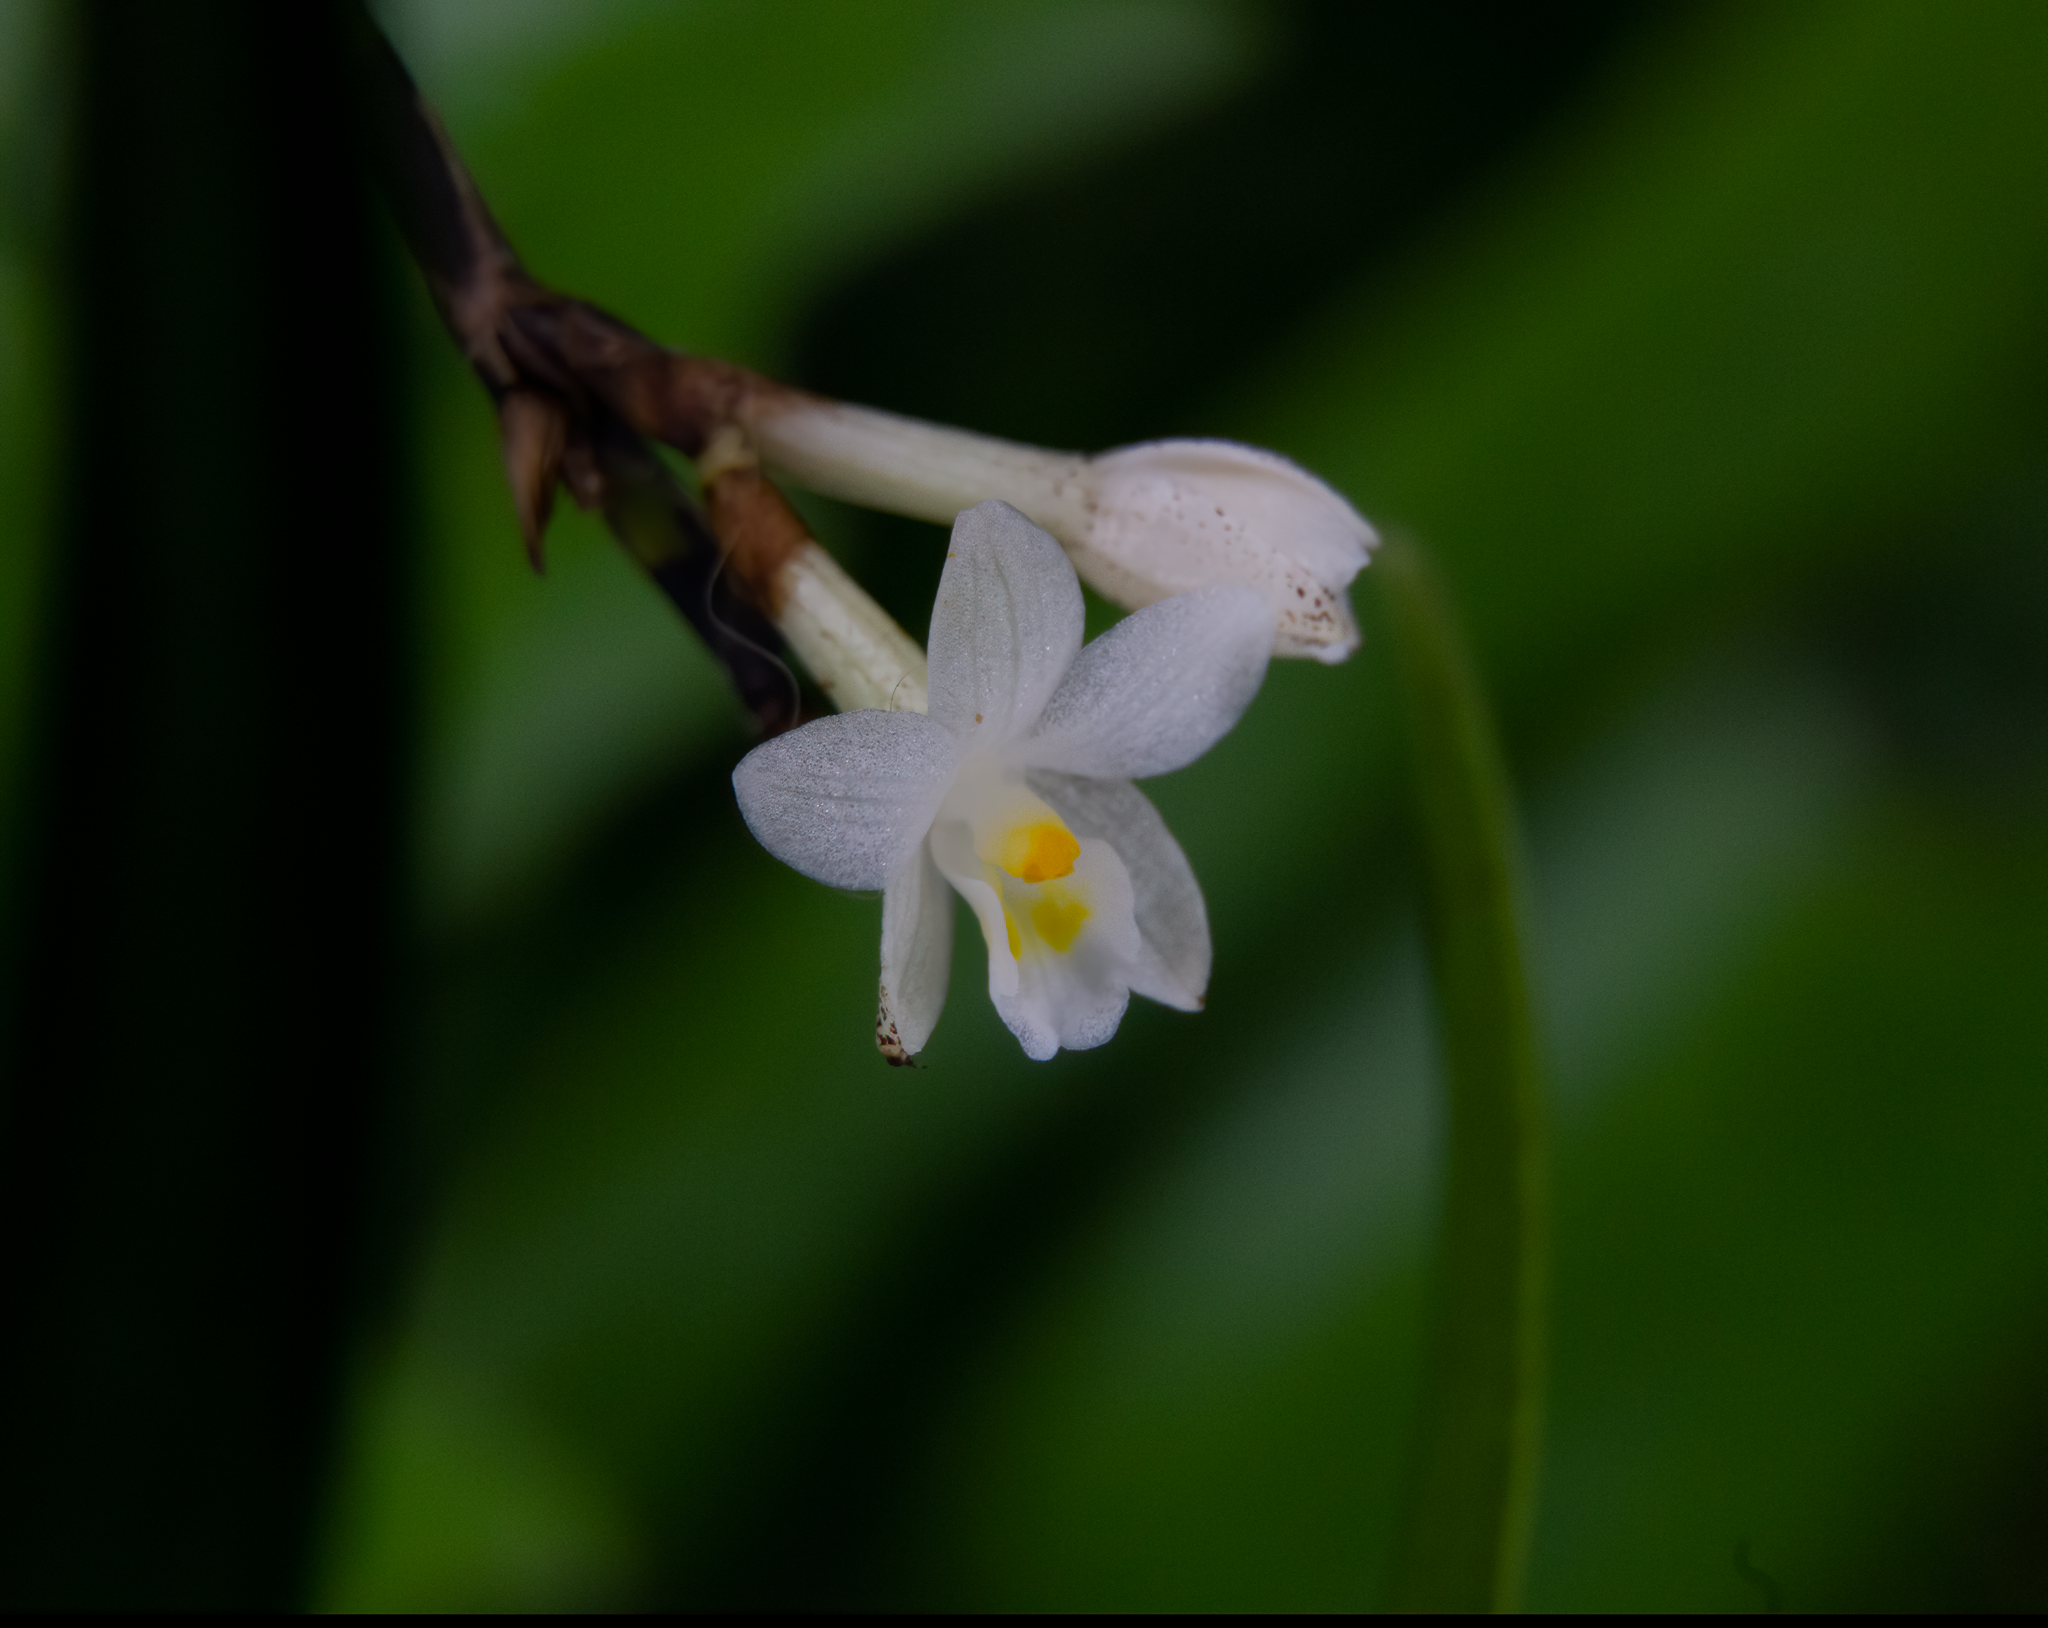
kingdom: Plantae
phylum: Tracheophyta
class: Liliopsida
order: Asparagales
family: Orchidaceae
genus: Earina
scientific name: Earina autumnalis
